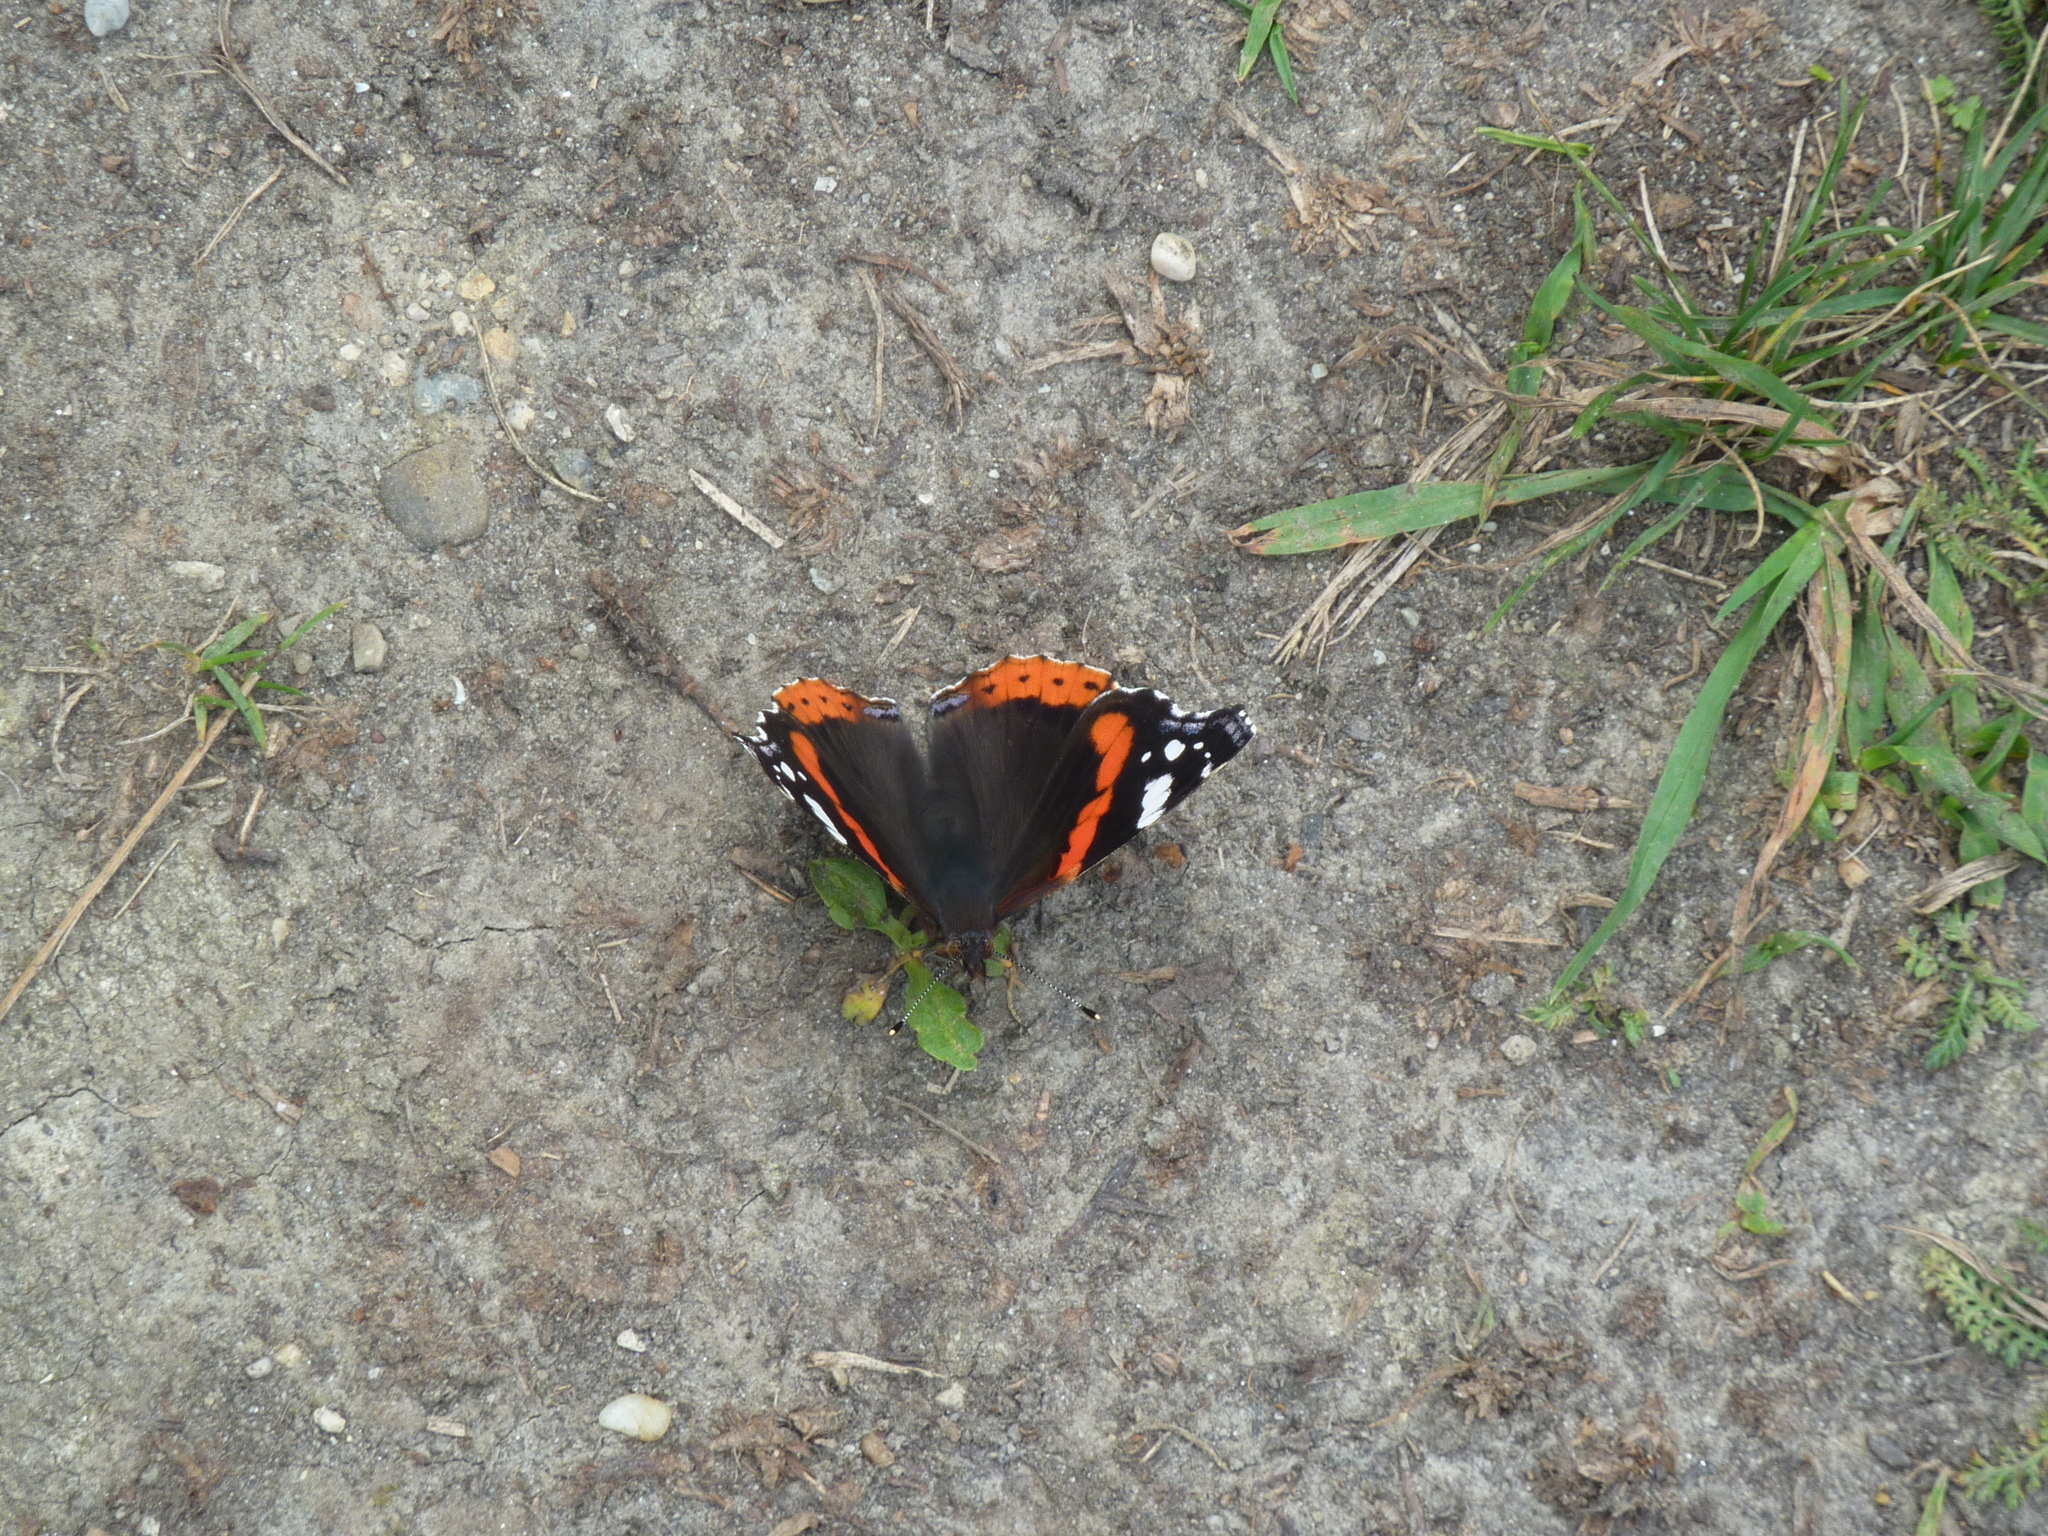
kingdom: Animalia
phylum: Arthropoda
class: Insecta
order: Lepidoptera
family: Nymphalidae
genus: Vanessa
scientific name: Vanessa atalanta
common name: Red admiral
